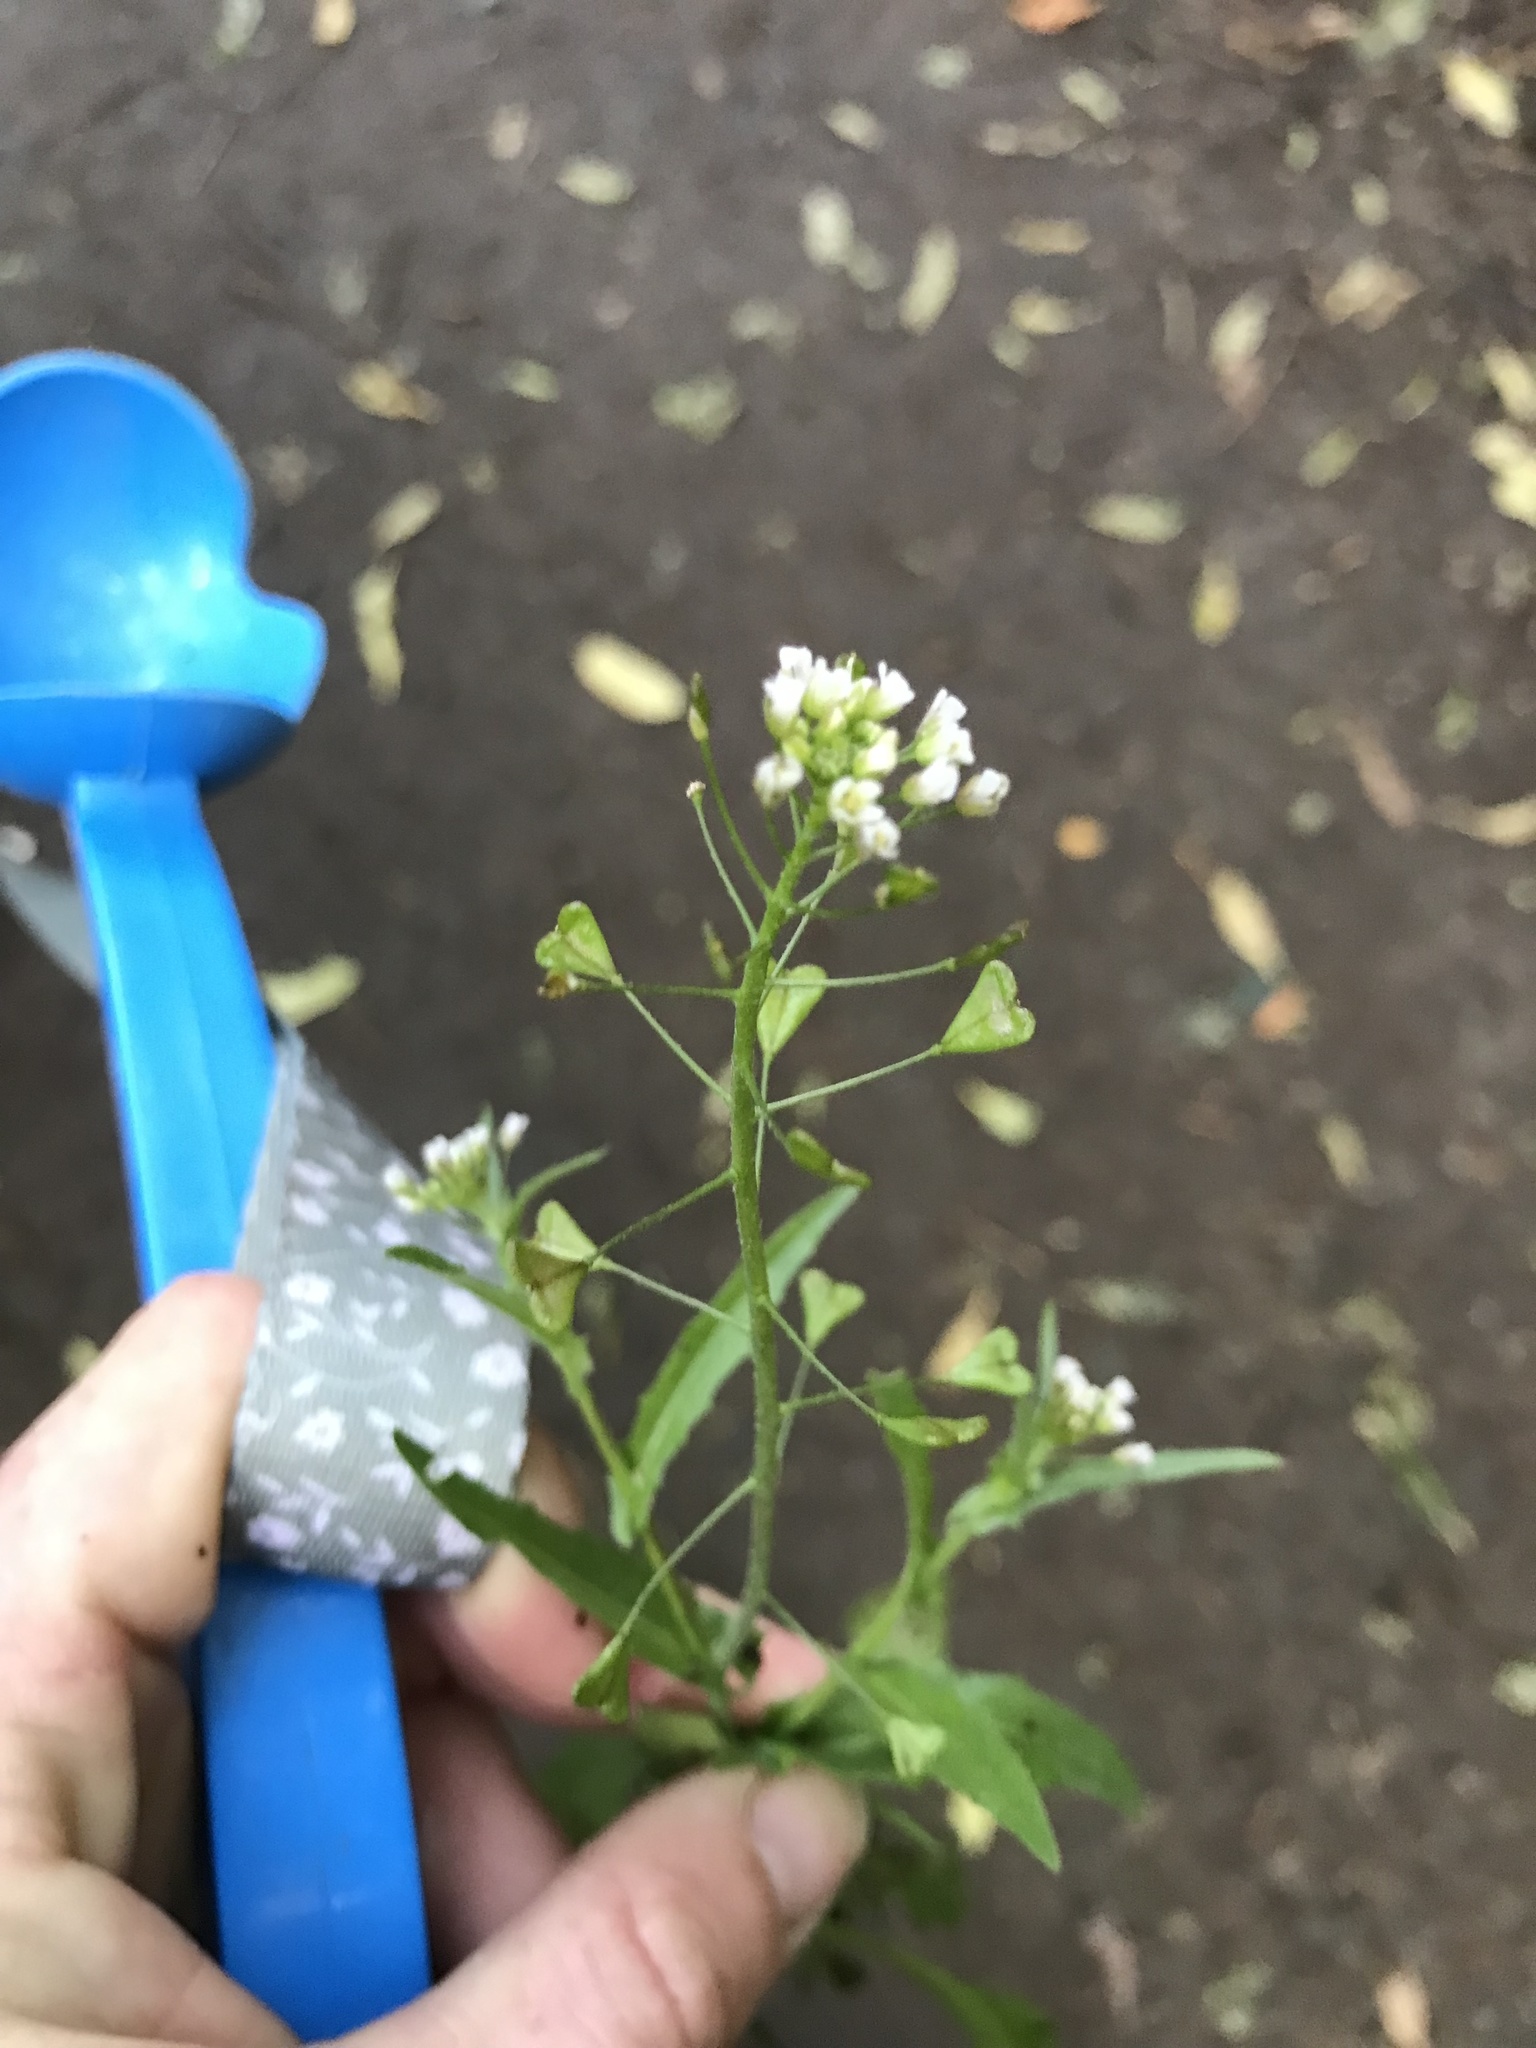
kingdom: Plantae
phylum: Tracheophyta
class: Magnoliopsida
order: Brassicales
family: Brassicaceae
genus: Capsella
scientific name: Capsella bursa-pastoris
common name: Shepherd's purse
